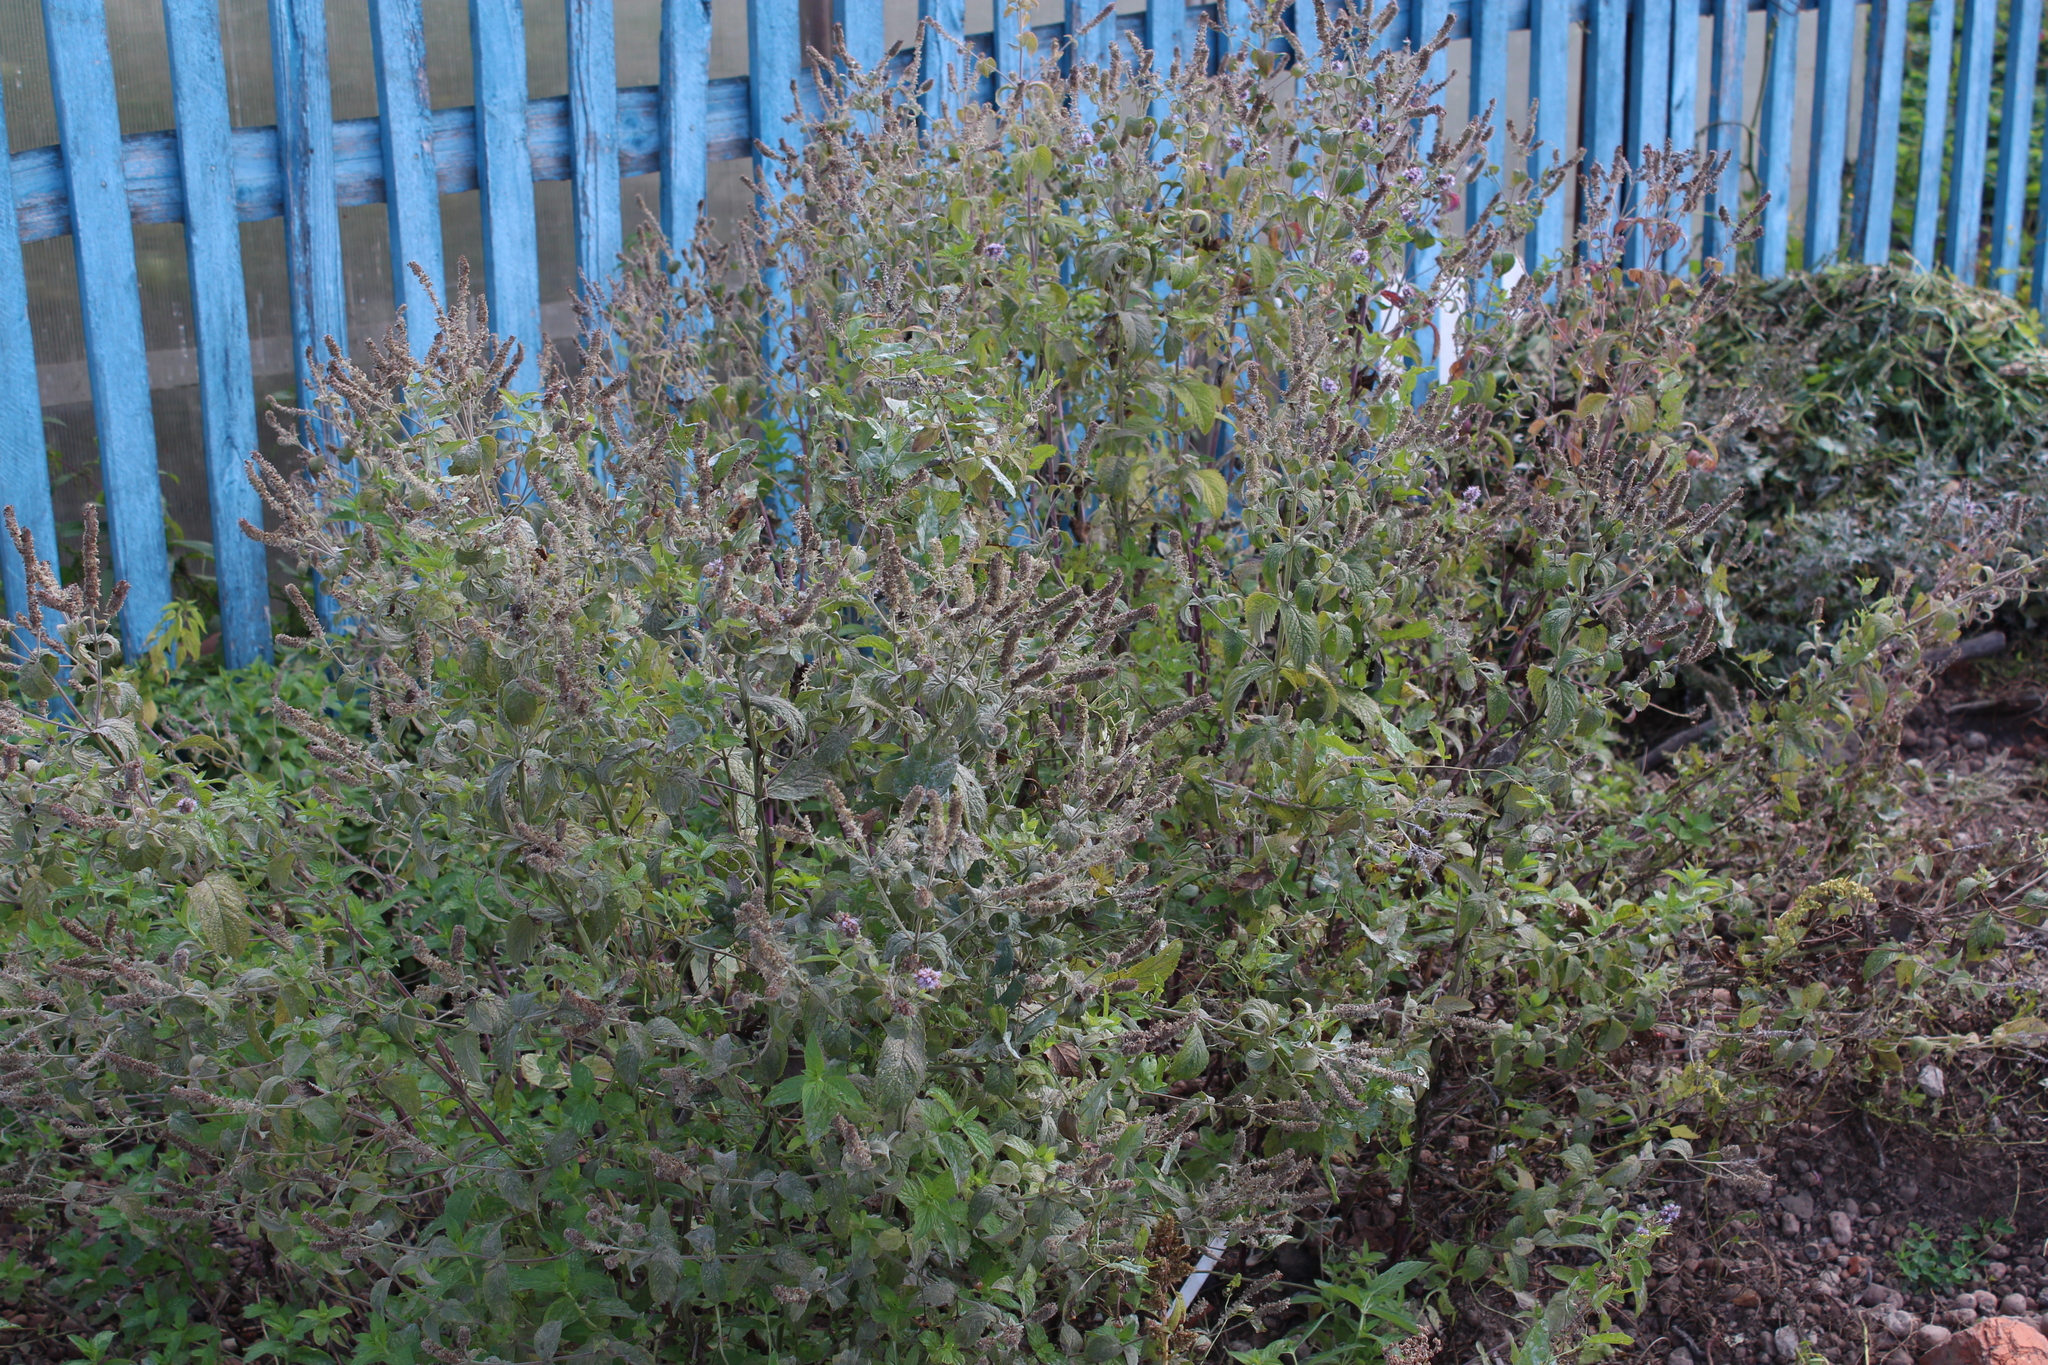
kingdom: Plantae
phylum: Tracheophyta
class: Magnoliopsida
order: Lamiales
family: Lamiaceae
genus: Mentha
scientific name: Mentha longifolia
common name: Horse mint
